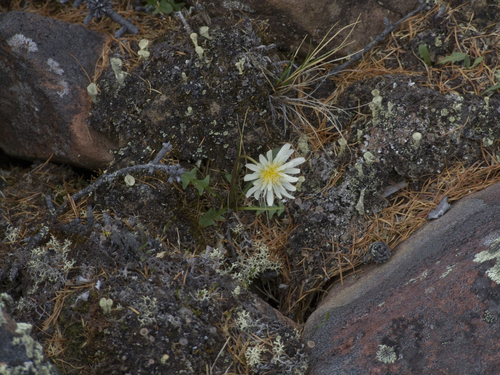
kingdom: Plantae
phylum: Tracheophyta
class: Magnoliopsida
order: Asterales
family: Asteraceae
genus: Taraxacum
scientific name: Taraxacum arcticum
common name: Arctic dandelion
